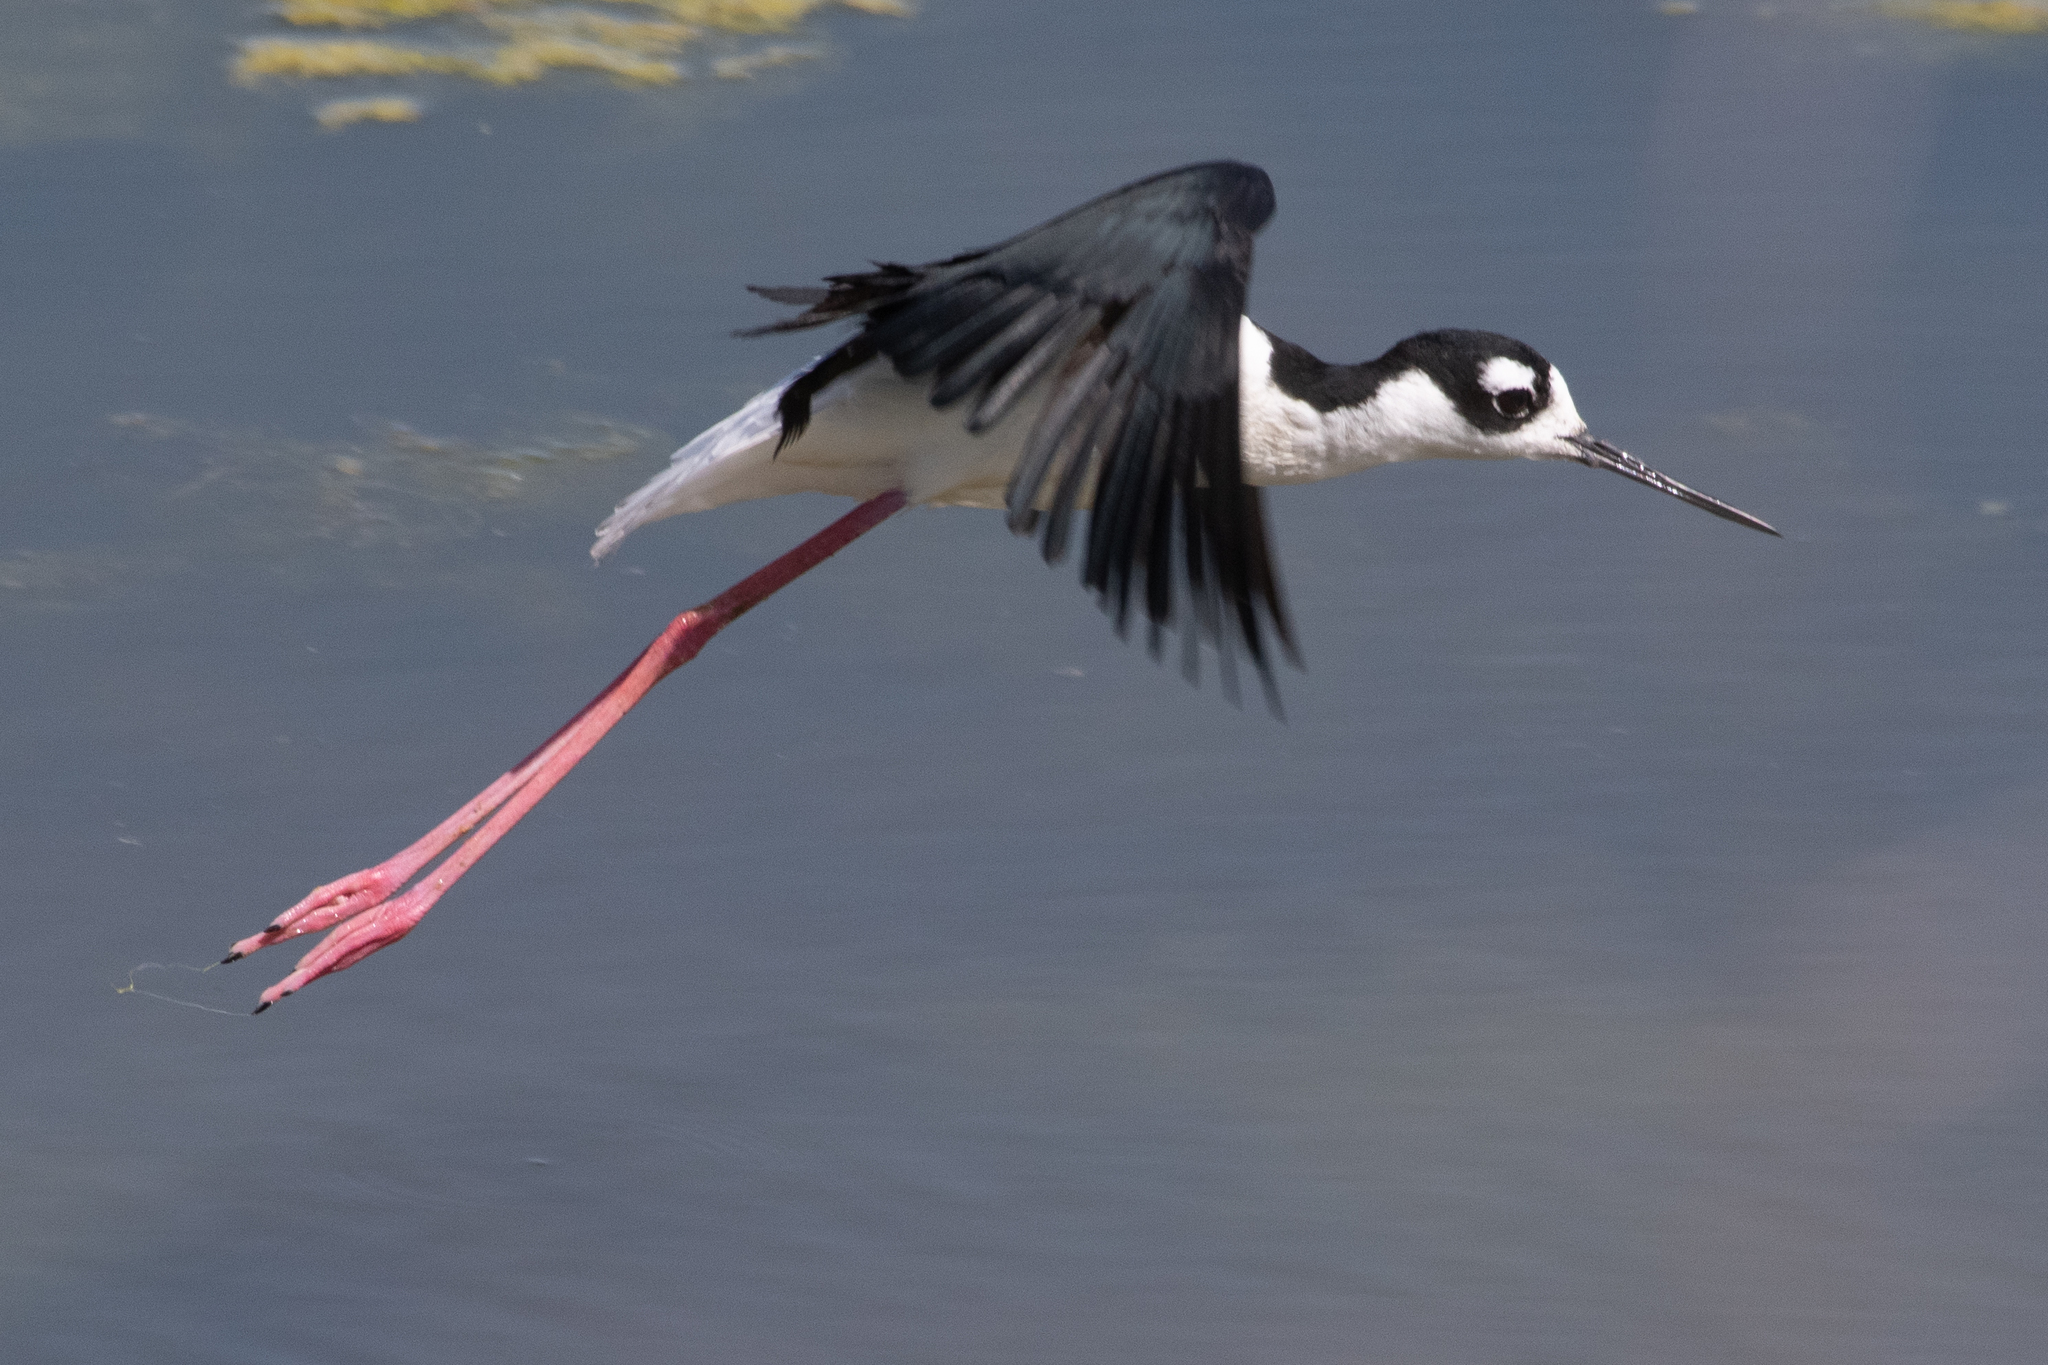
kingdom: Animalia
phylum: Chordata
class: Aves
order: Charadriiformes
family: Recurvirostridae
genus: Himantopus
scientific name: Himantopus mexicanus
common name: Black-necked stilt
